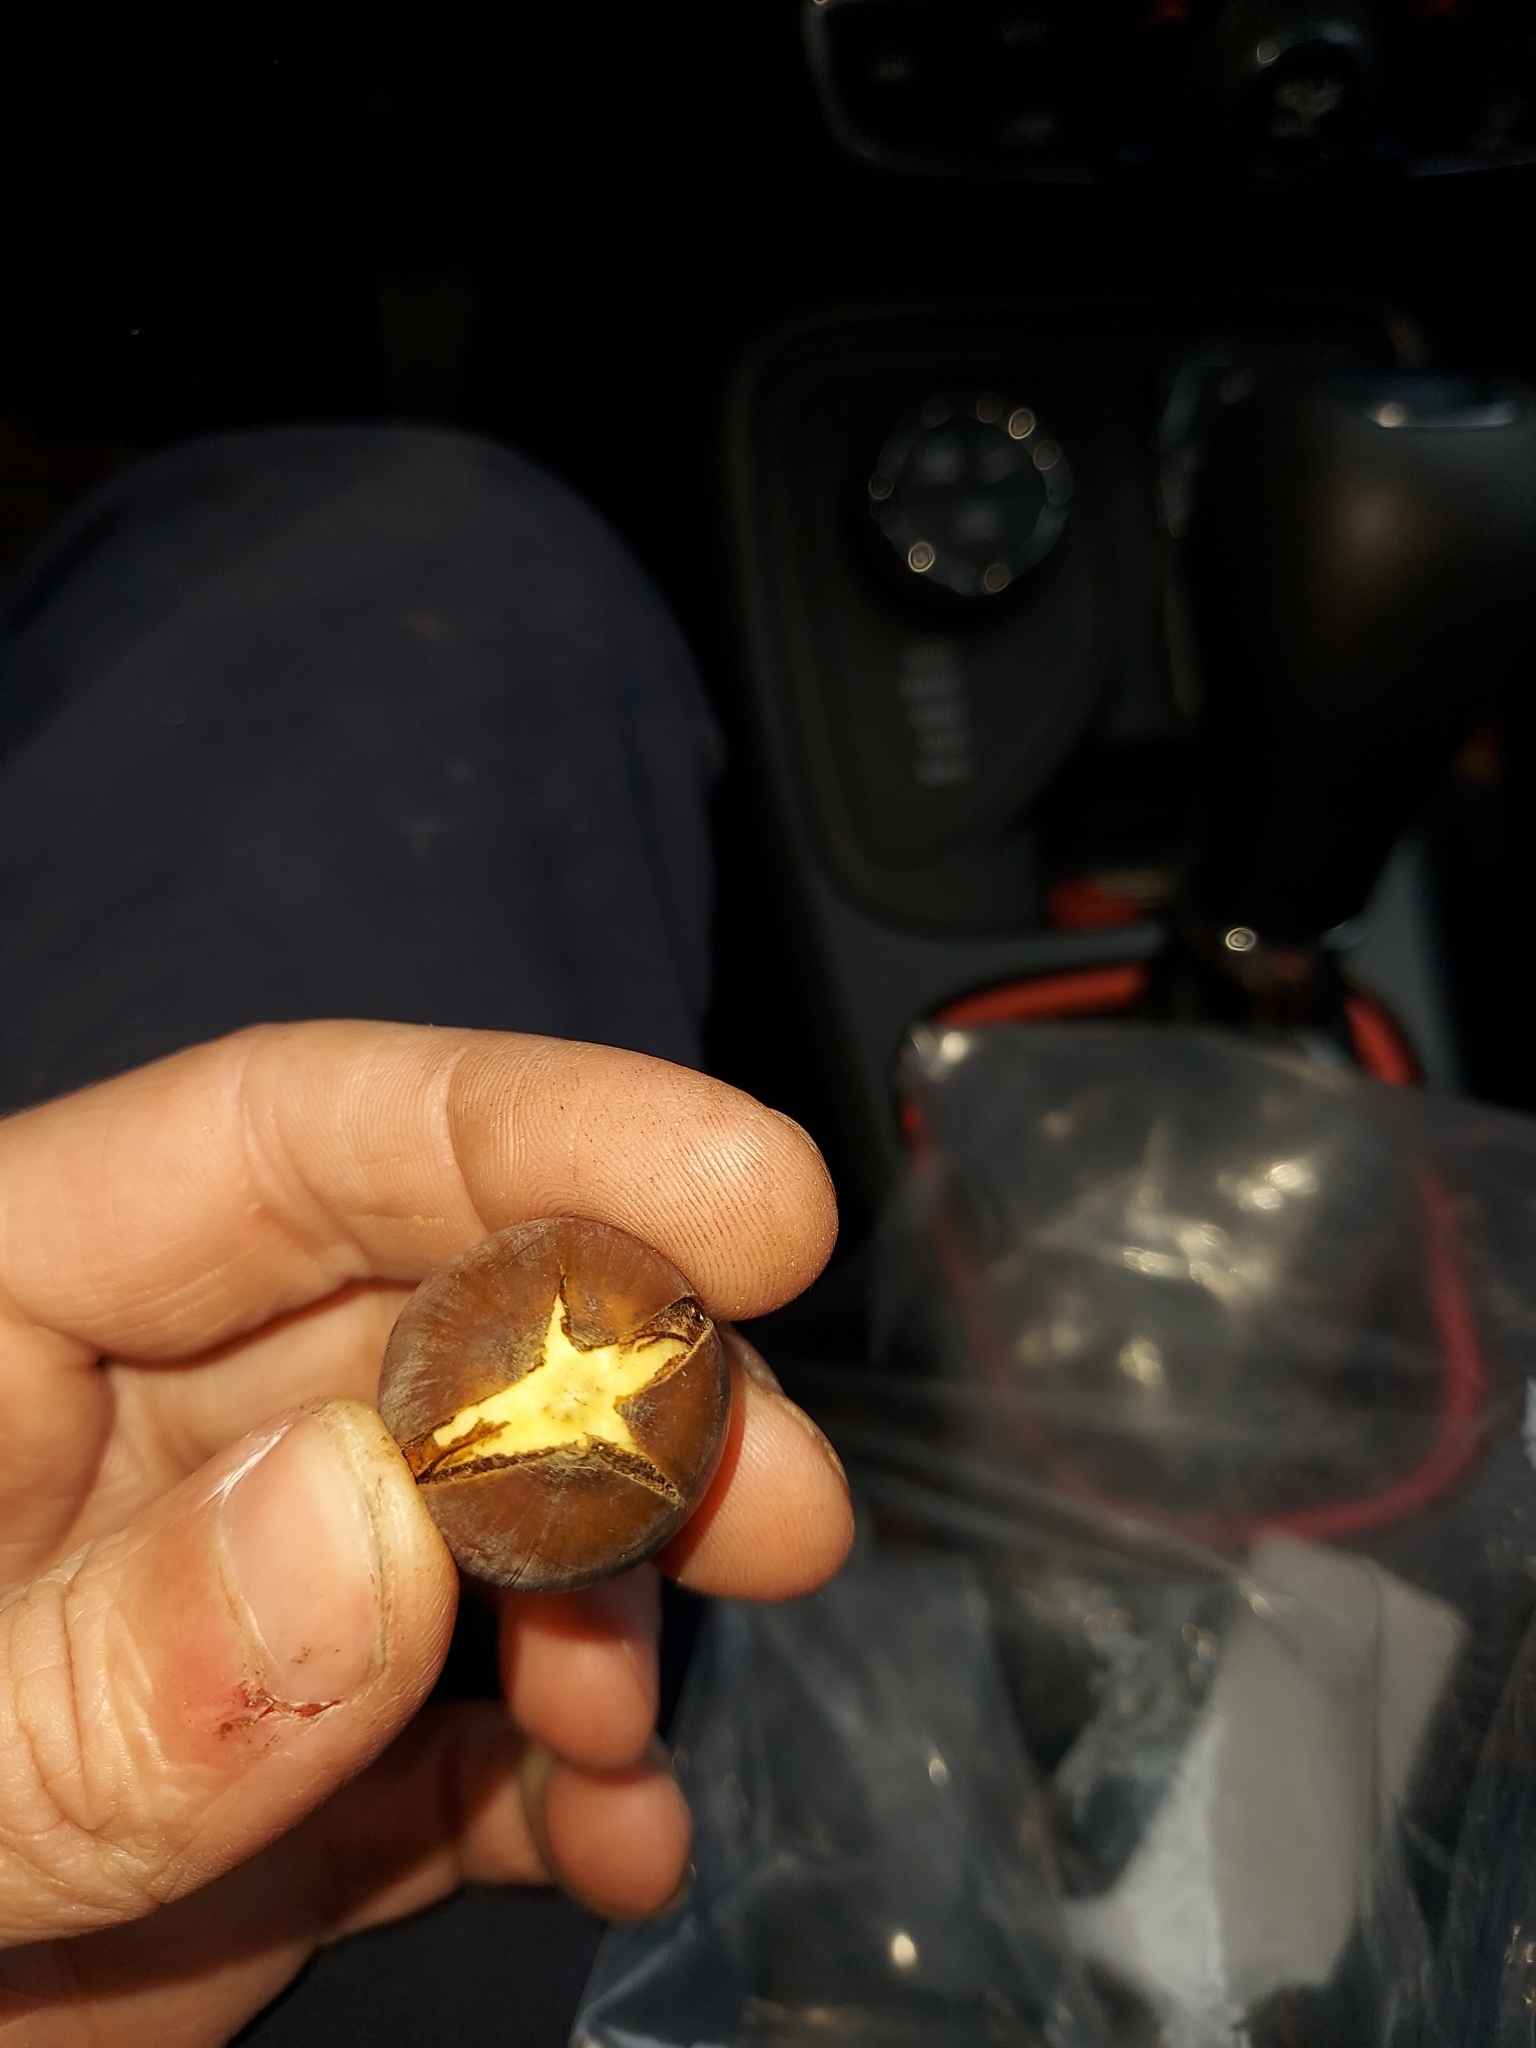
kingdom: Plantae
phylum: Tracheophyta
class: Magnoliopsida
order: Fagales
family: Fagaceae
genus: Quercus
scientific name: Quercus garryana
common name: Garry oak
